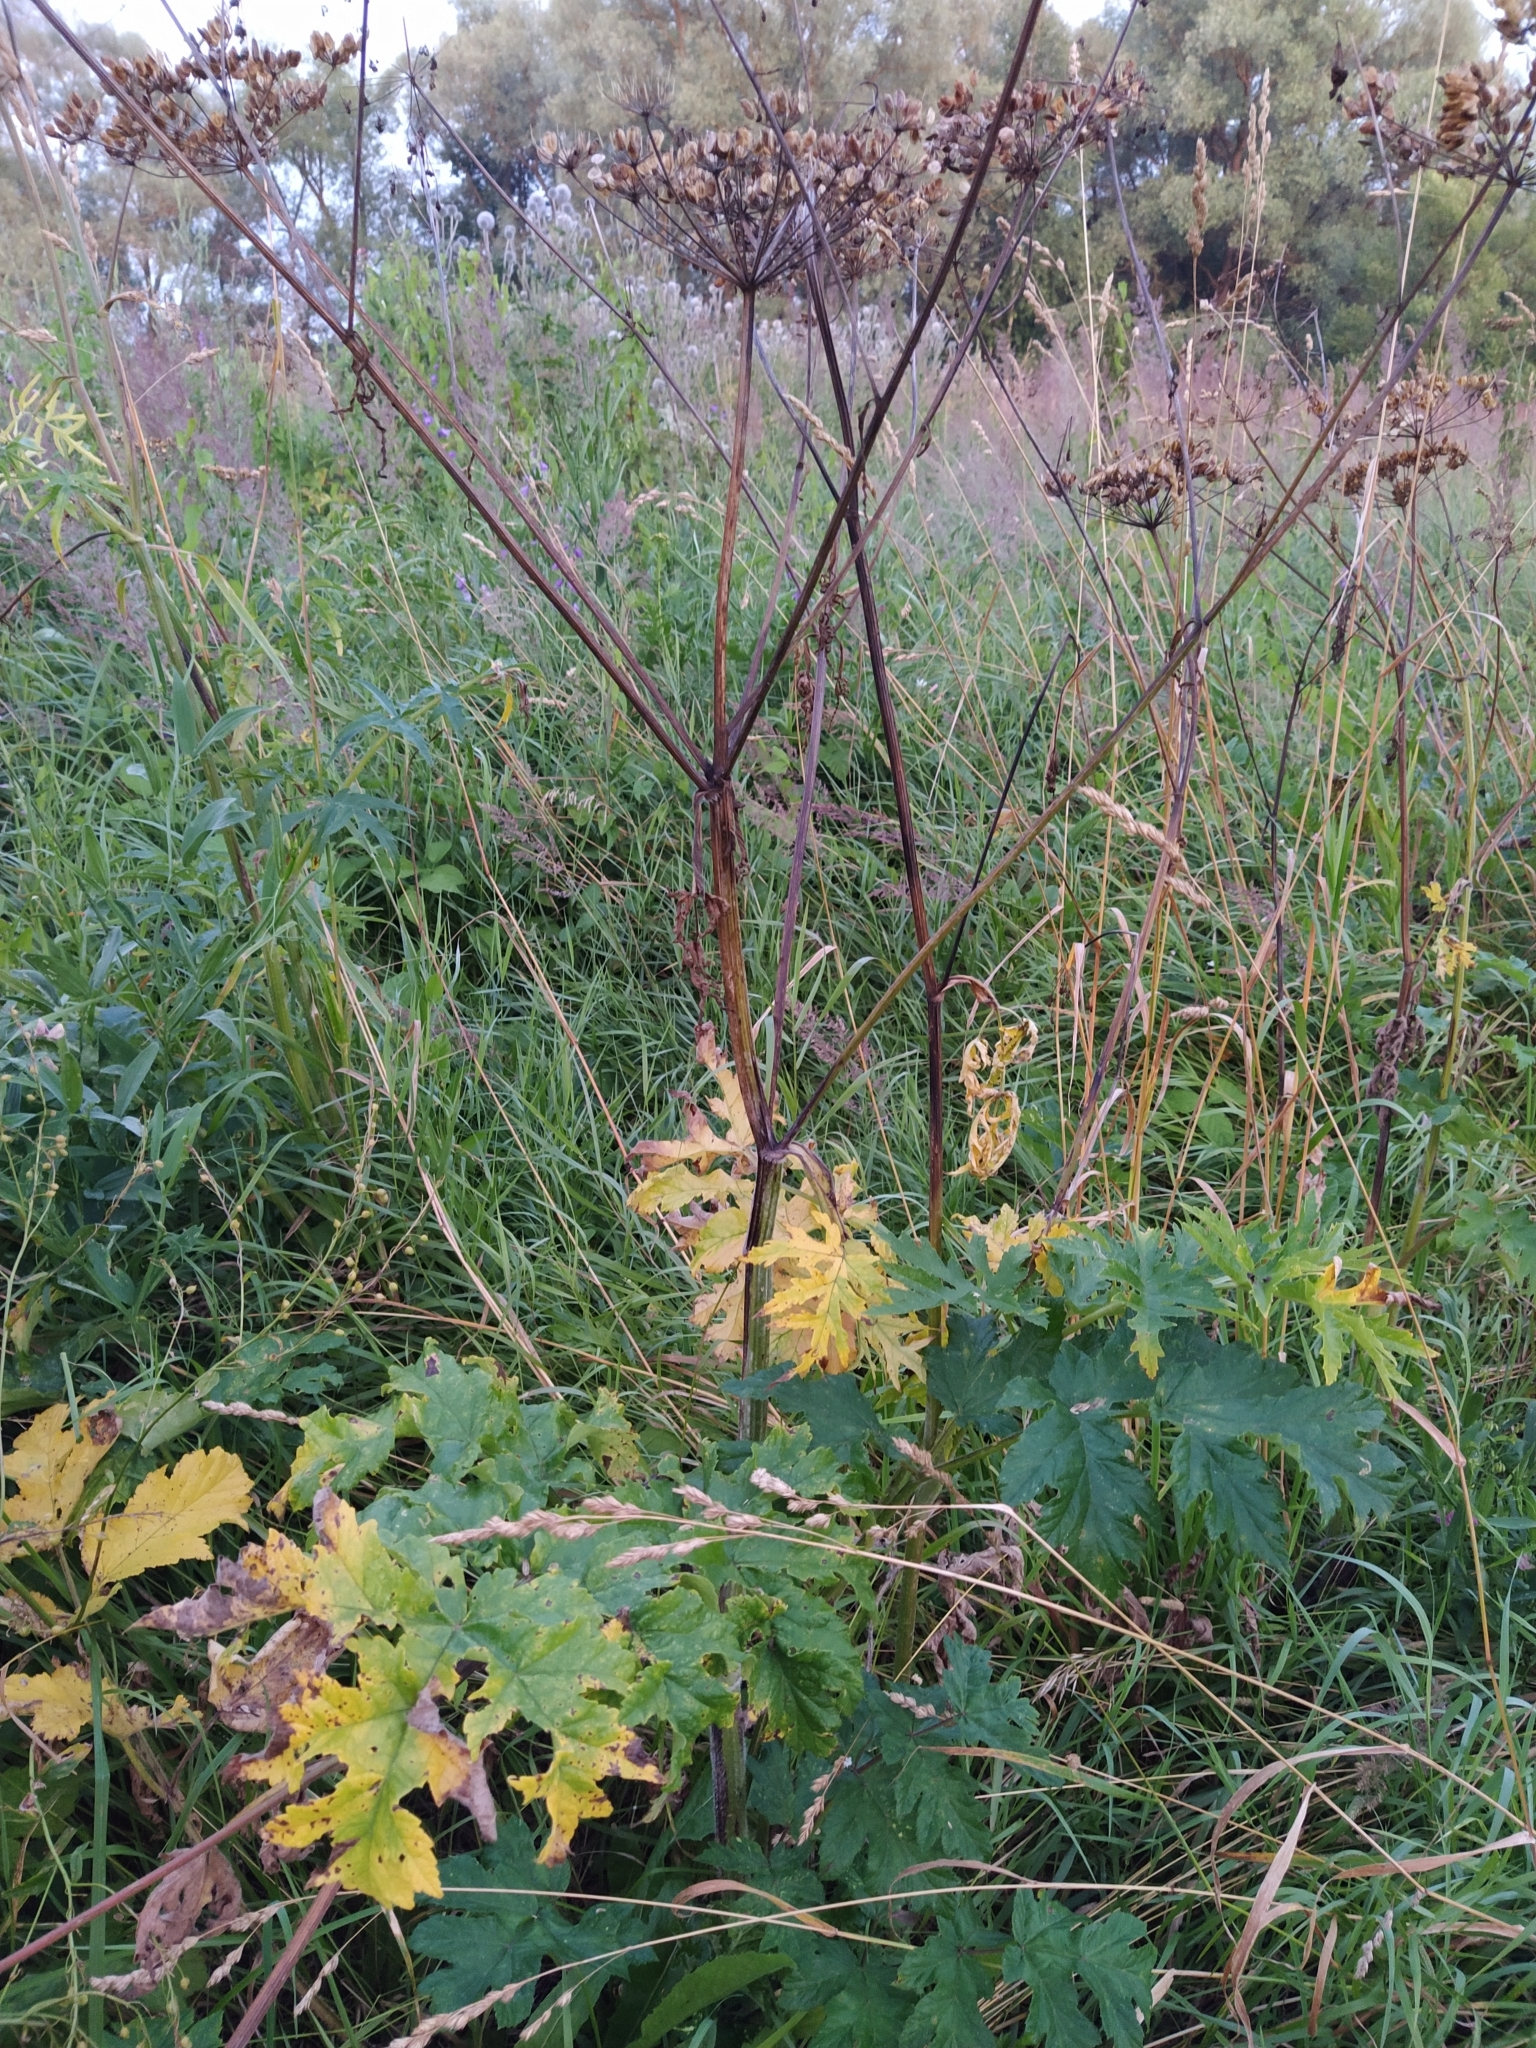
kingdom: Plantae
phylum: Tracheophyta
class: Magnoliopsida
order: Apiales
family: Apiaceae
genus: Heracleum
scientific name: Heracleum sphondylium
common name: Hogweed
